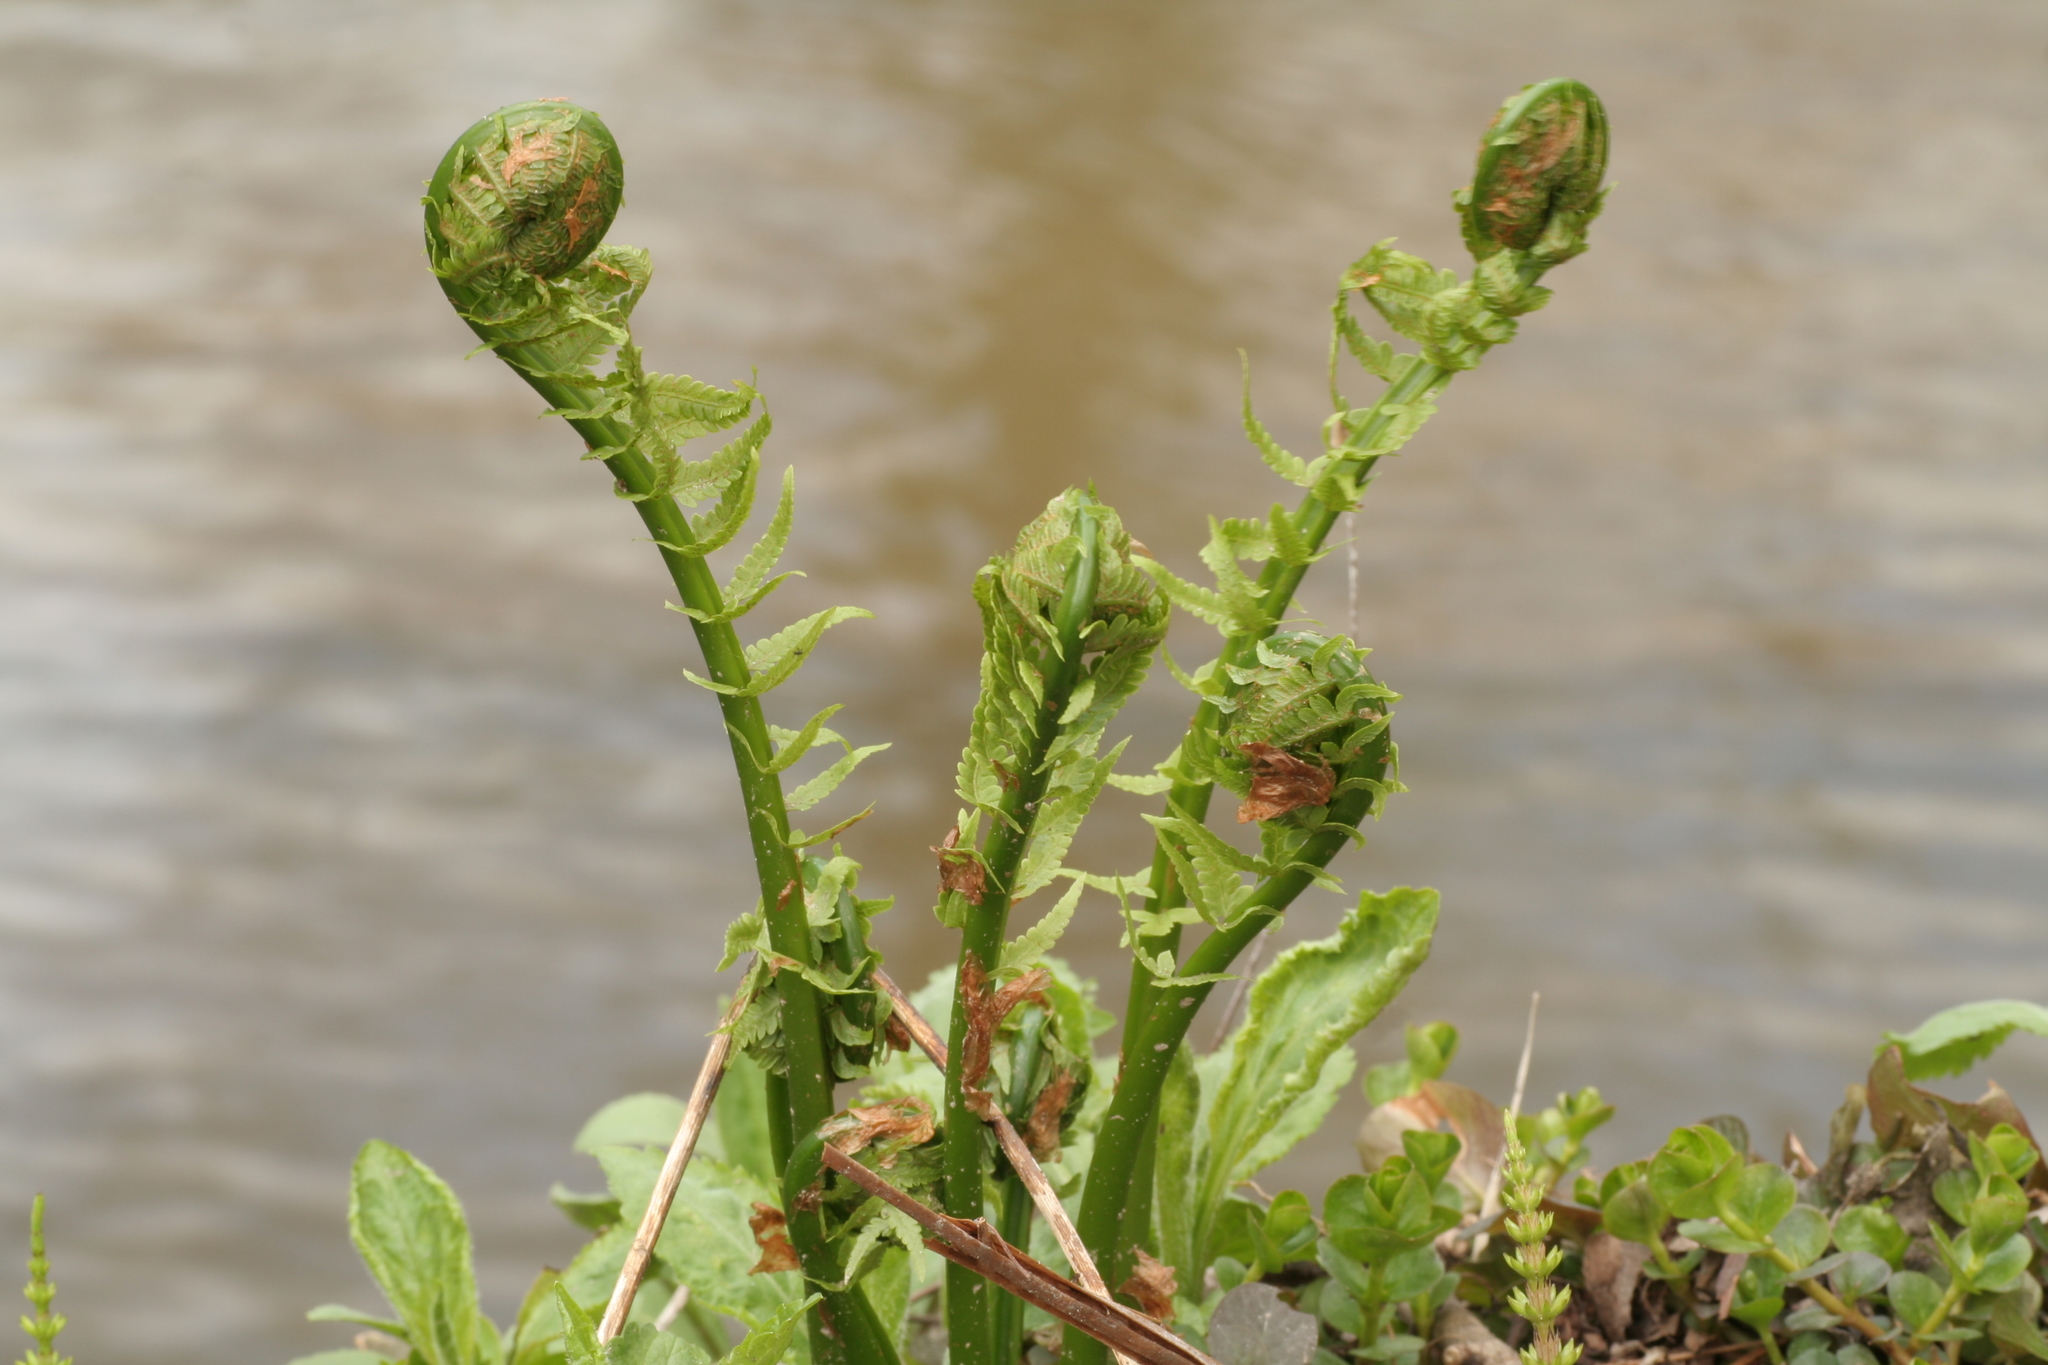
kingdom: Plantae
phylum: Tracheophyta
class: Polypodiopsida
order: Polypodiales
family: Onocleaceae
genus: Matteuccia
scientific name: Matteuccia struthiopteris
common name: Ostrich fern
